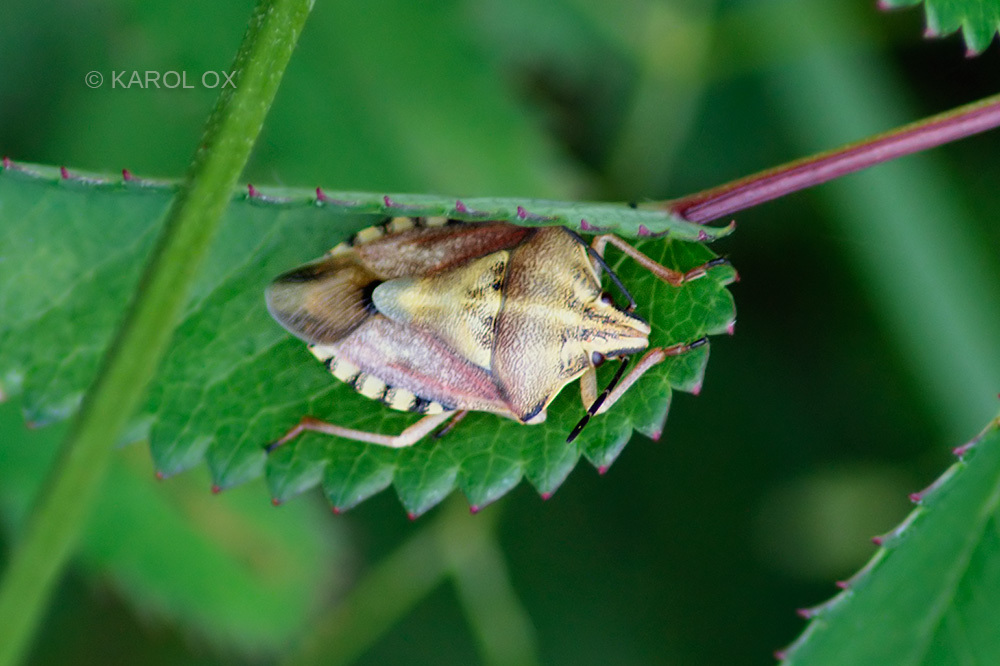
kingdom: Animalia
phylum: Arthropoda
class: Insecta
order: Hemiptera
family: Pentatomidae
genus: Carpocoris
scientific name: Carpocoris purpureipennis
